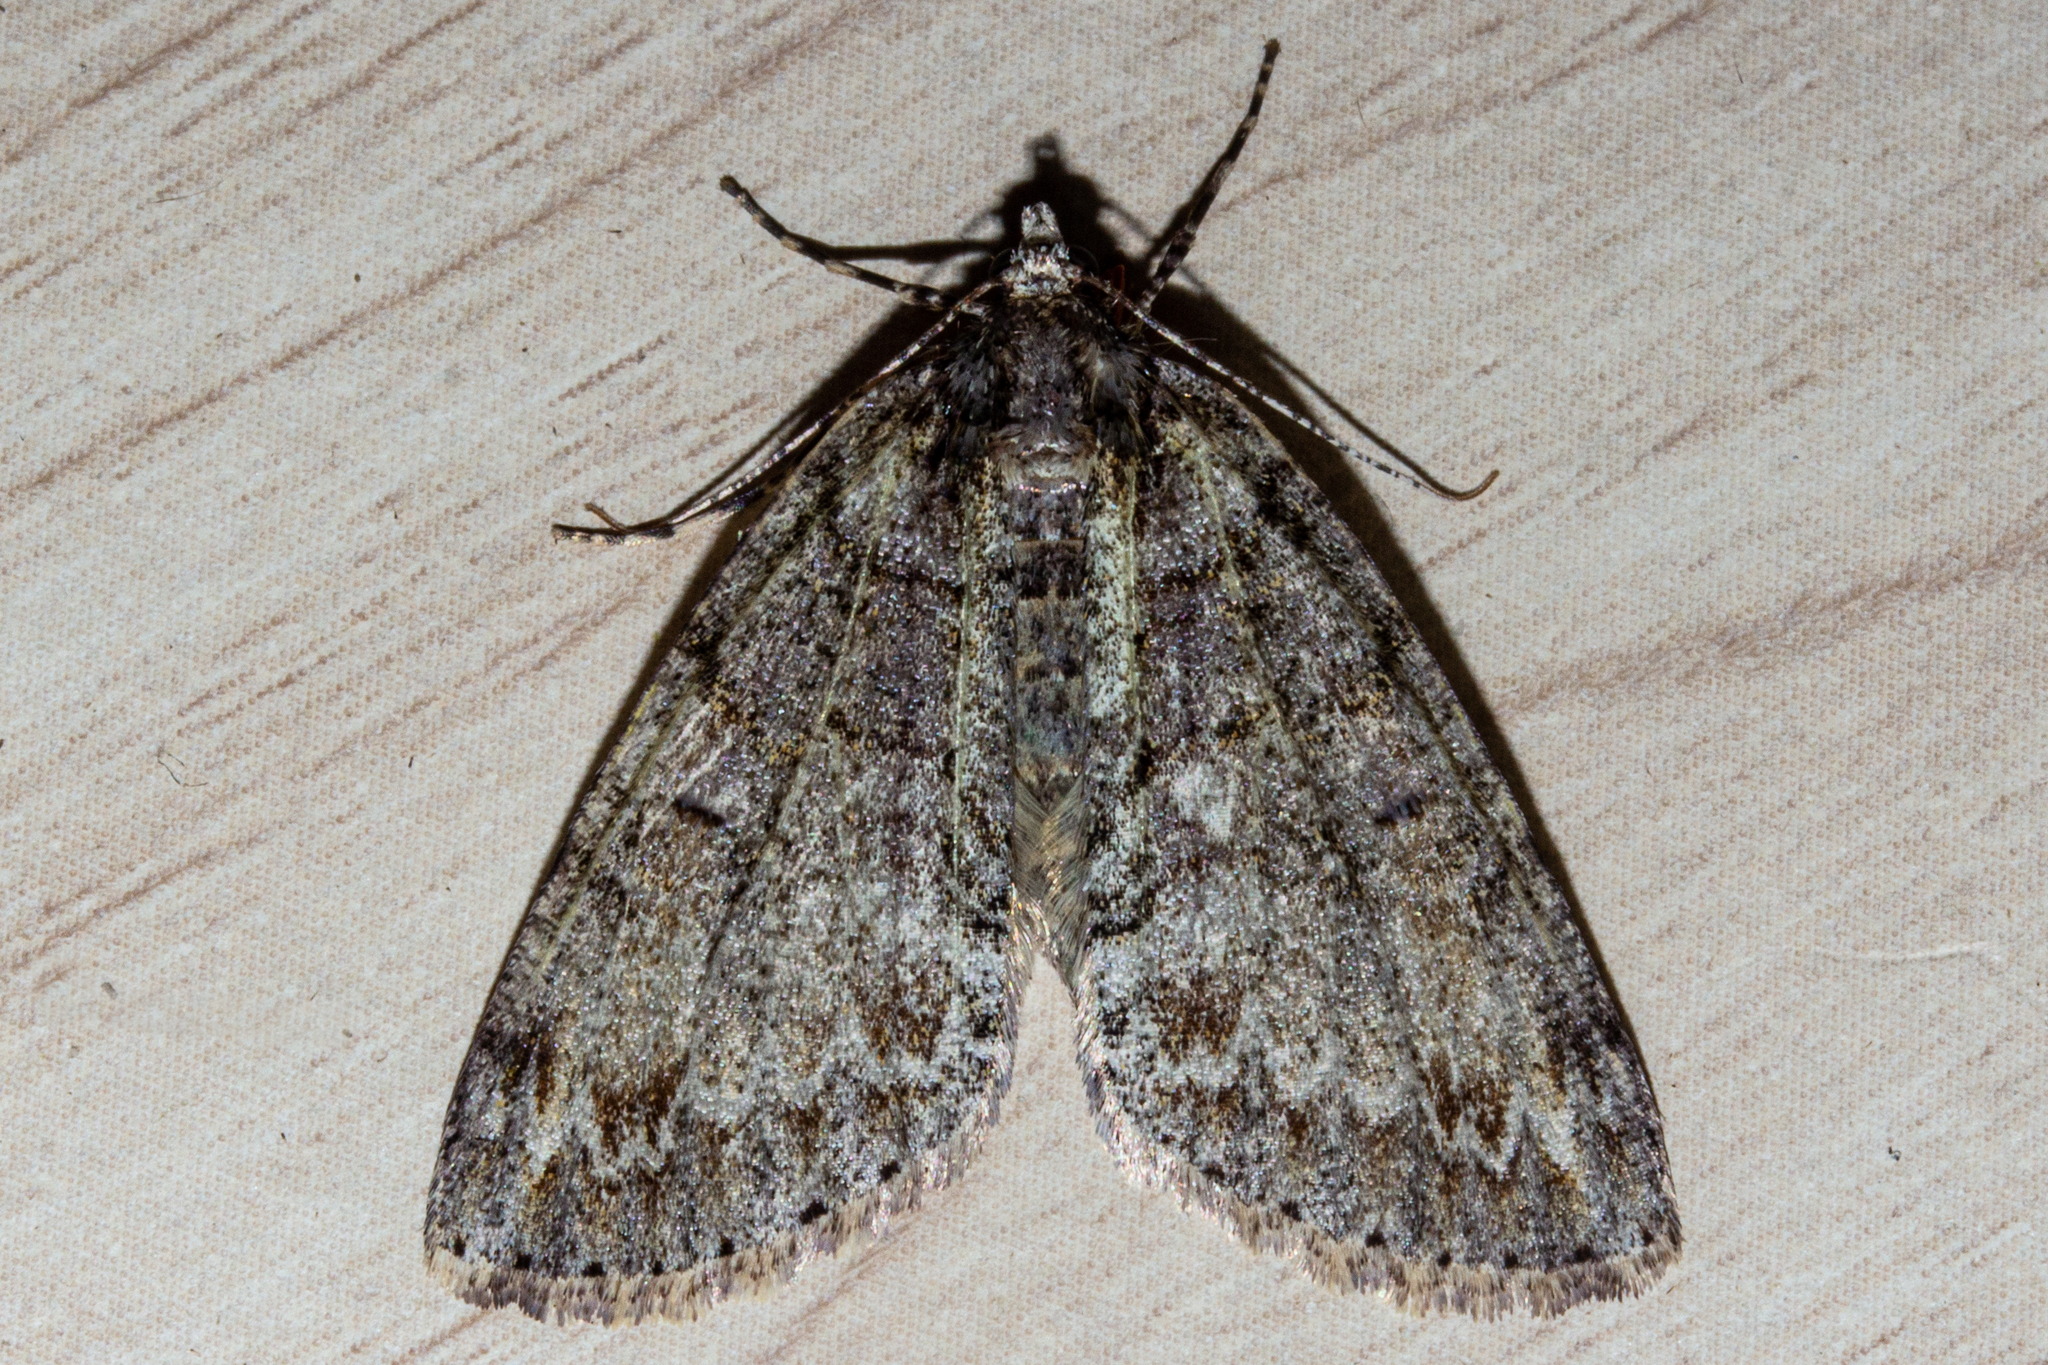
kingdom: Animalia
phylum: Arthropoda
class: Insecta
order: Lepidoptera
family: Geometridae
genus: Pseudocoremia
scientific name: Pseudocoremia suavis
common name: Common forest looper
